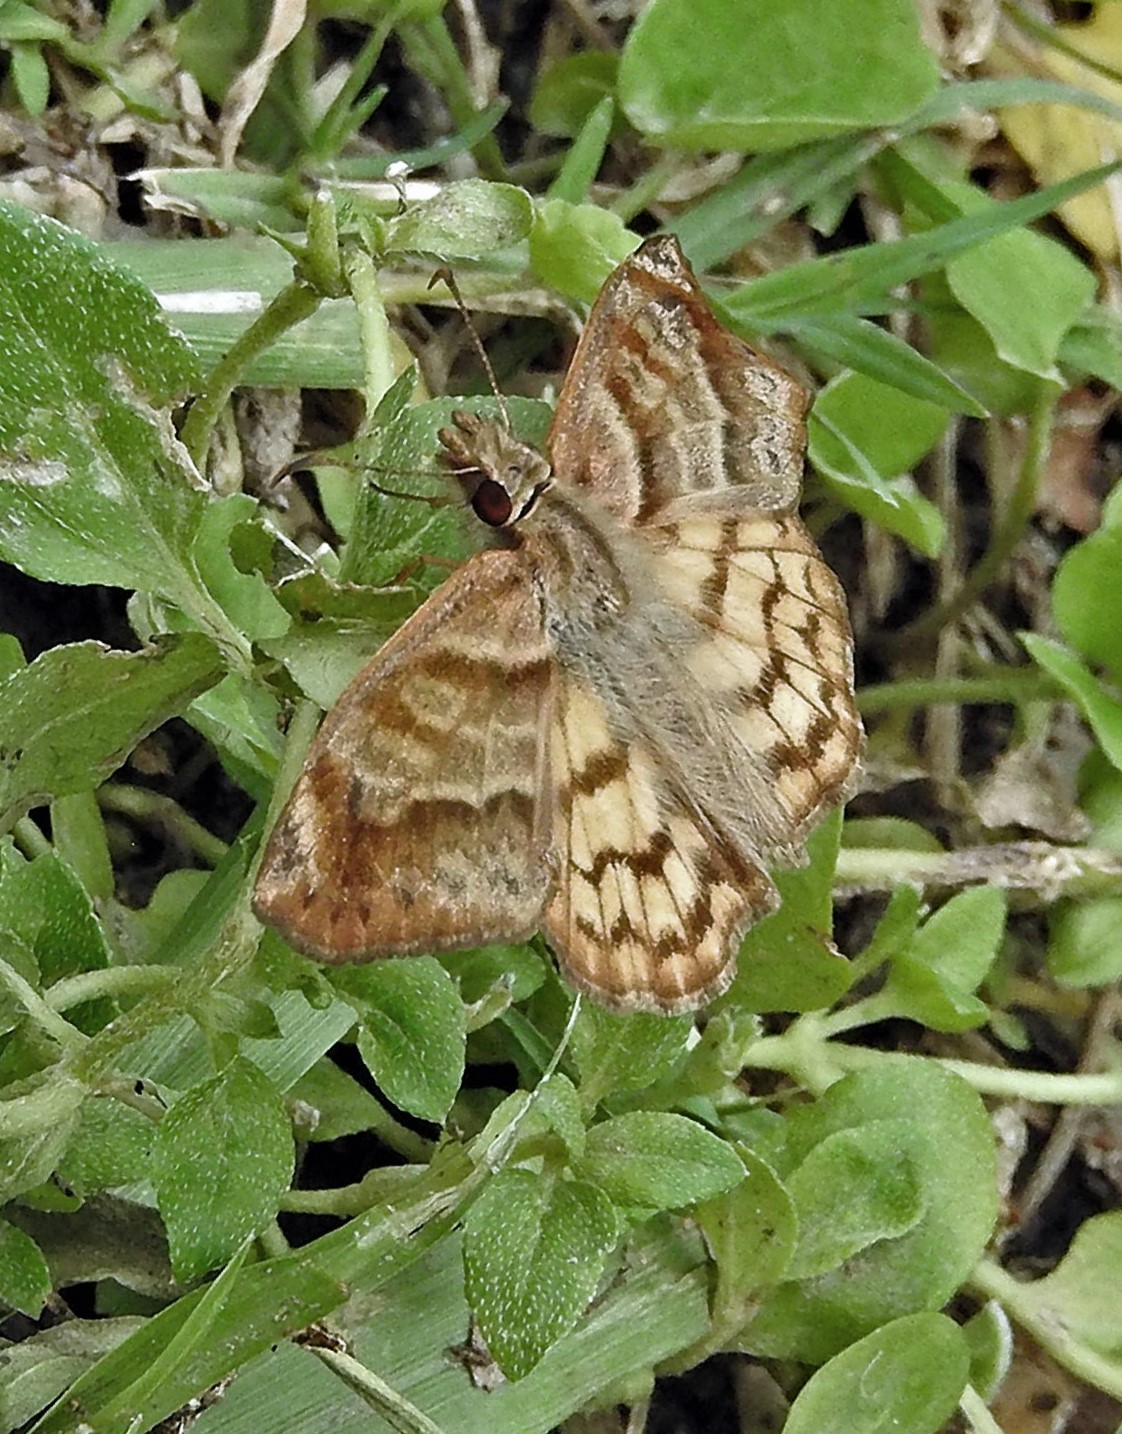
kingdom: Animalia
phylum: Arthropoda
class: Insecta
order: Lepidoptera
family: Hesperiidae
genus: Timochares
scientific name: Timochares trifasciata
